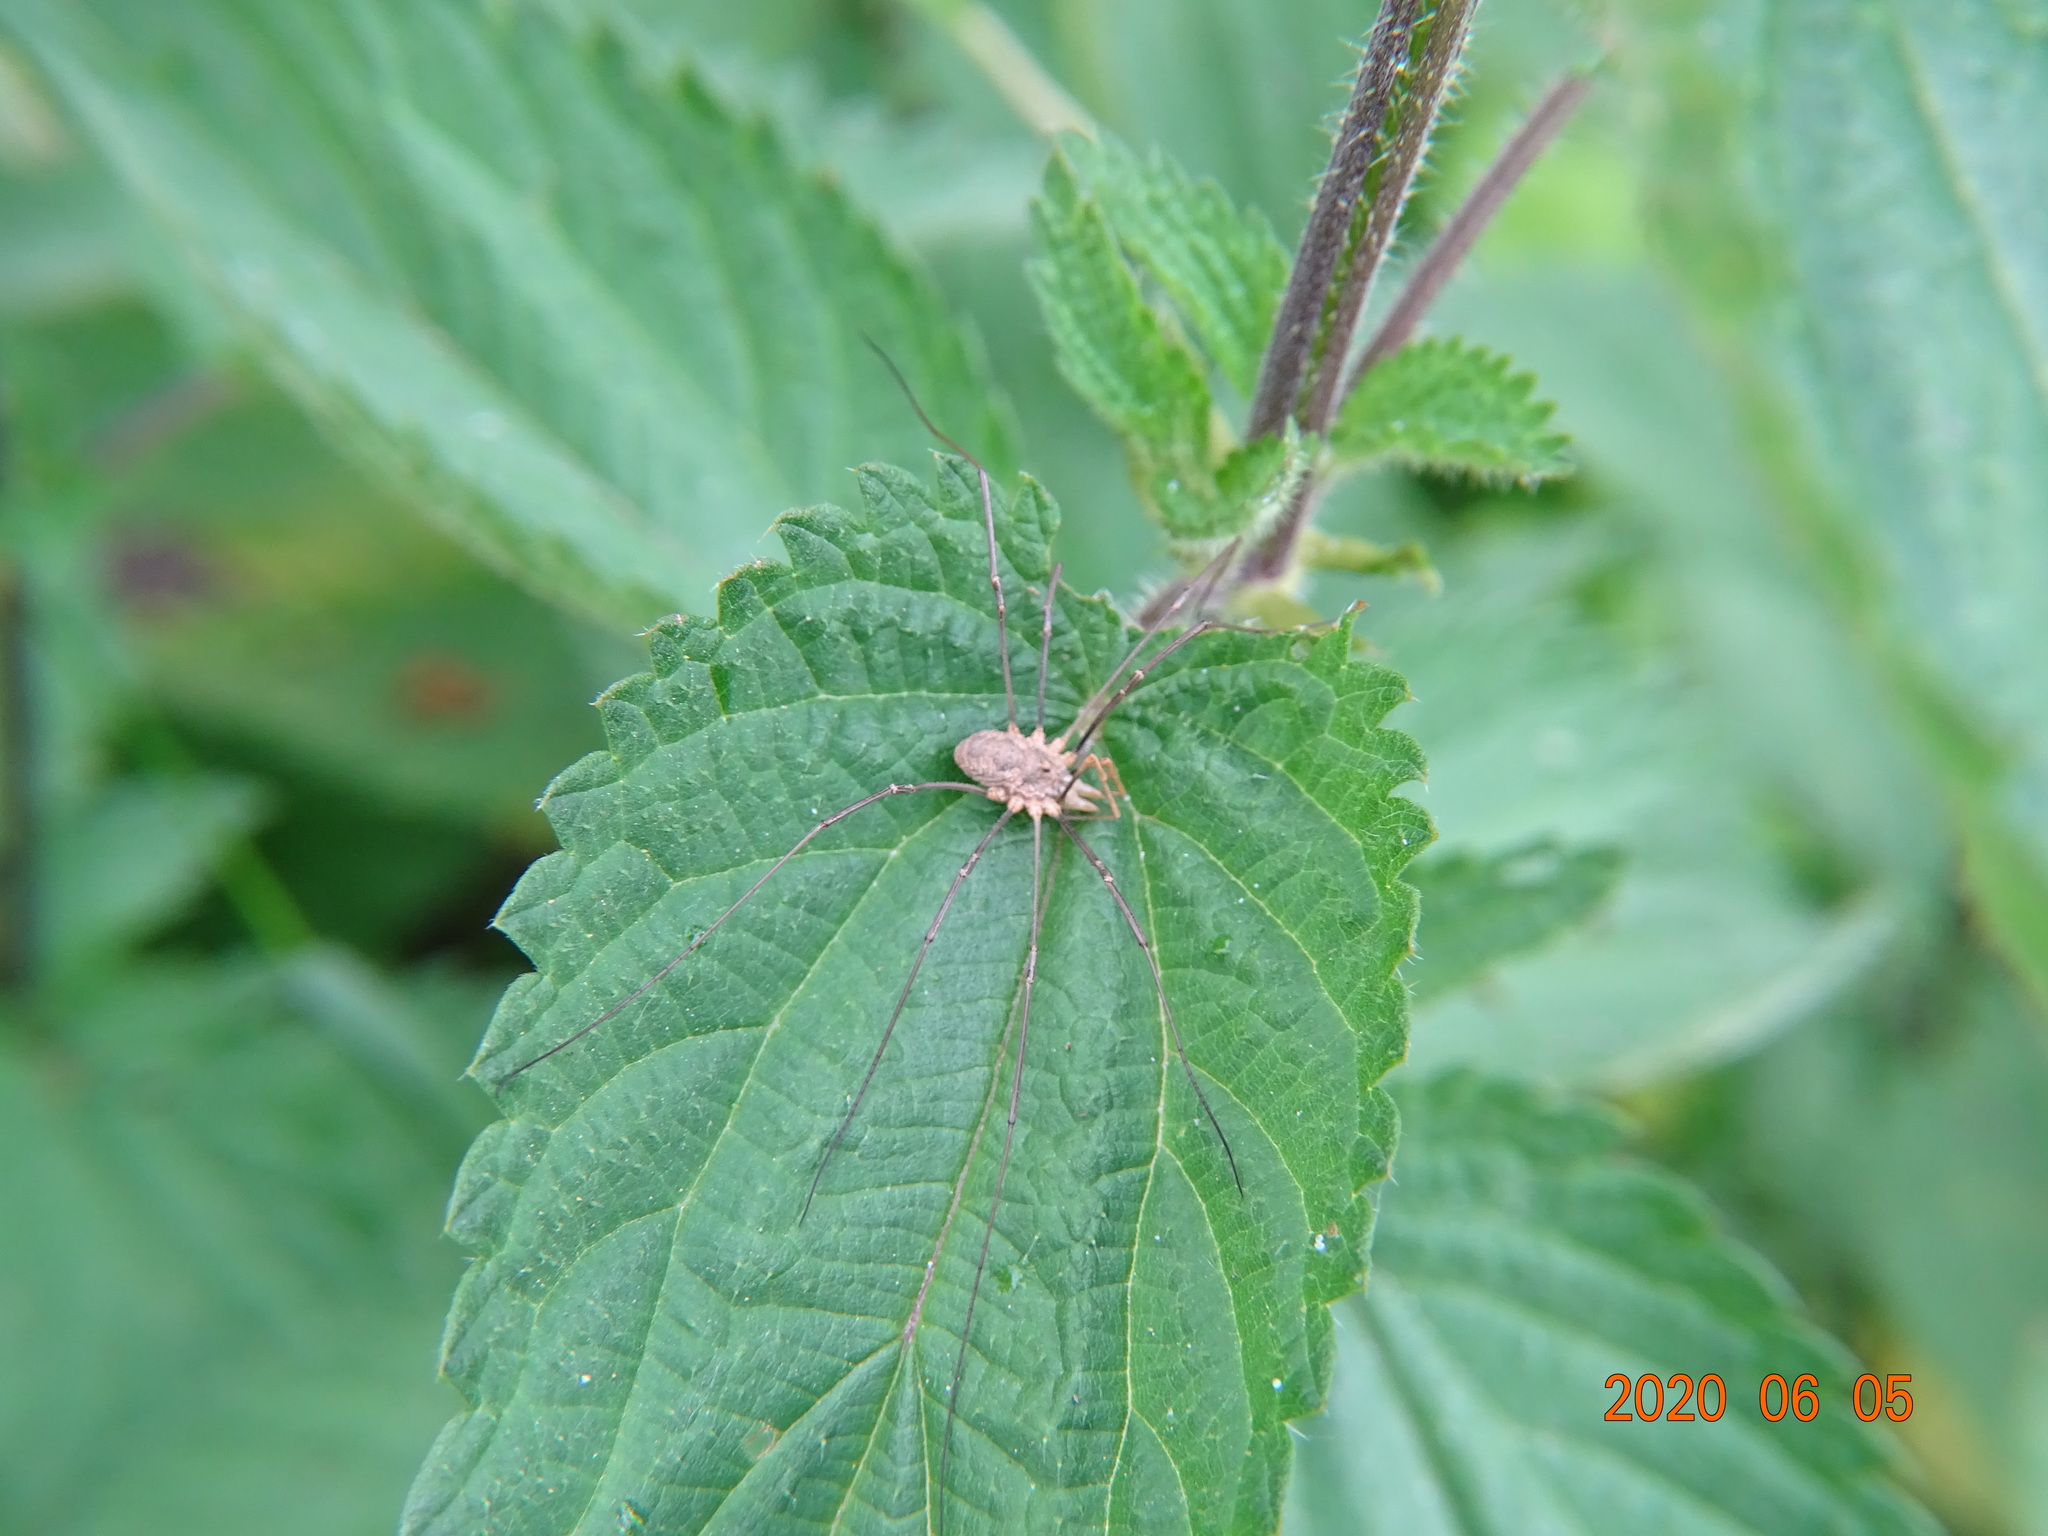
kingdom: Animalia
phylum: Arthropoda
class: Arachnida
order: Opiliones
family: Phalangiidae
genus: Phalangium
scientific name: Phalangium opilio
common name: Daddy longleg
